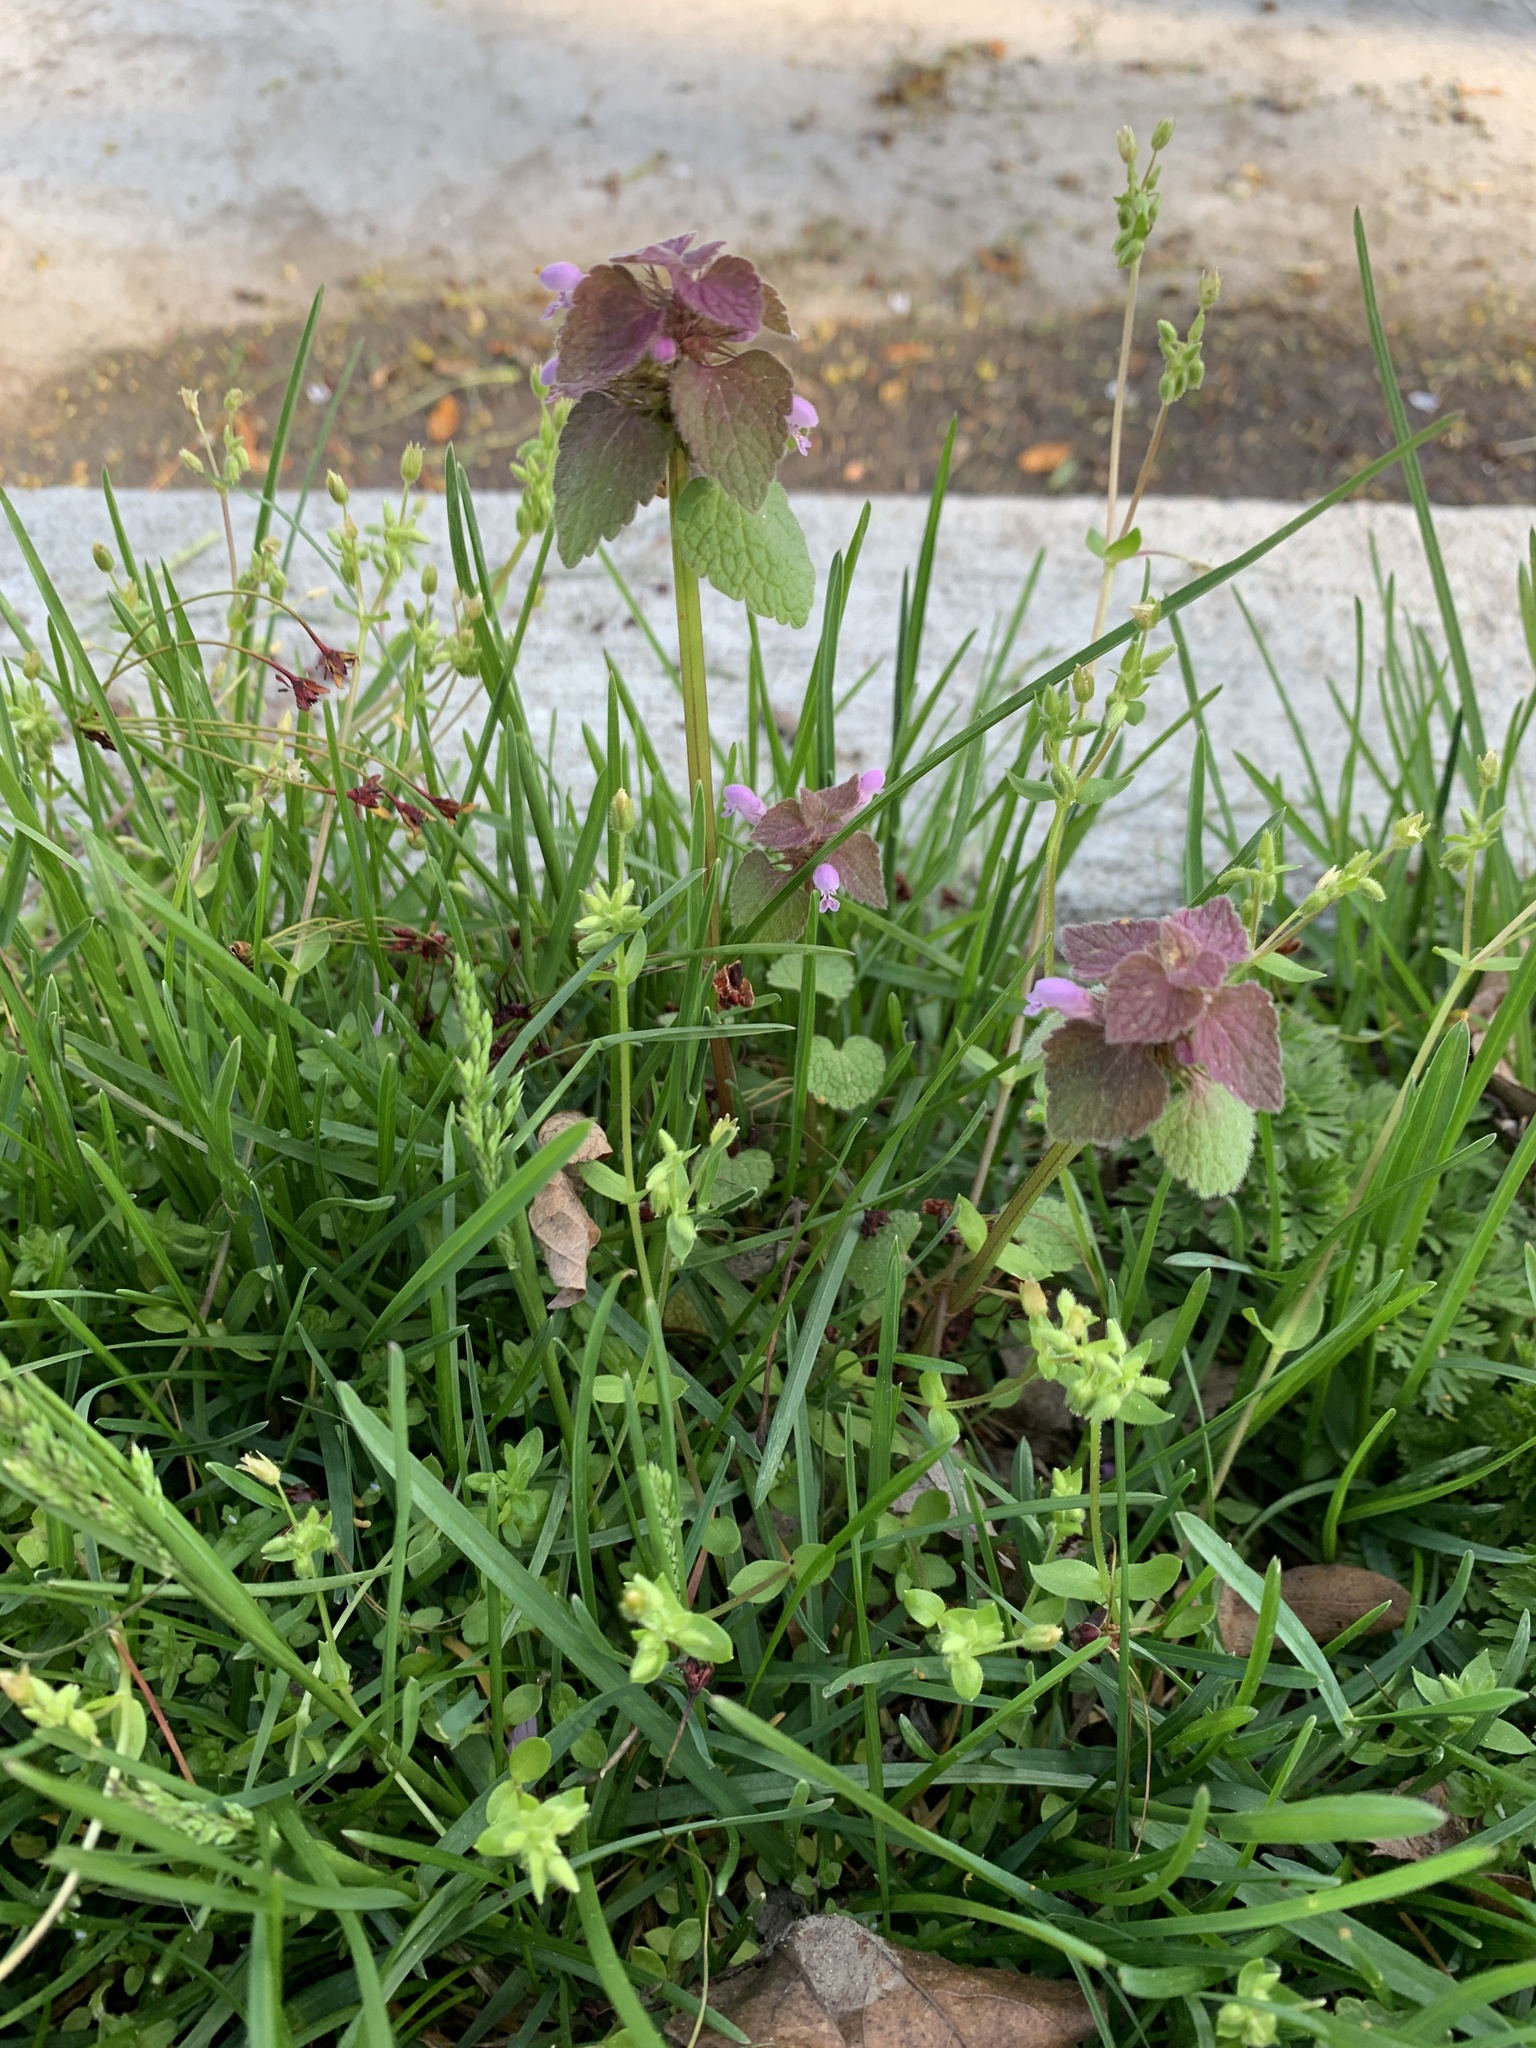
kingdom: Plantae
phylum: Tracheophyta
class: Magnoliopsida
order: Lamiales
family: Lamiaceae
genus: Lamium
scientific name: Lamium purpureum
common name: Red dead-nettle
